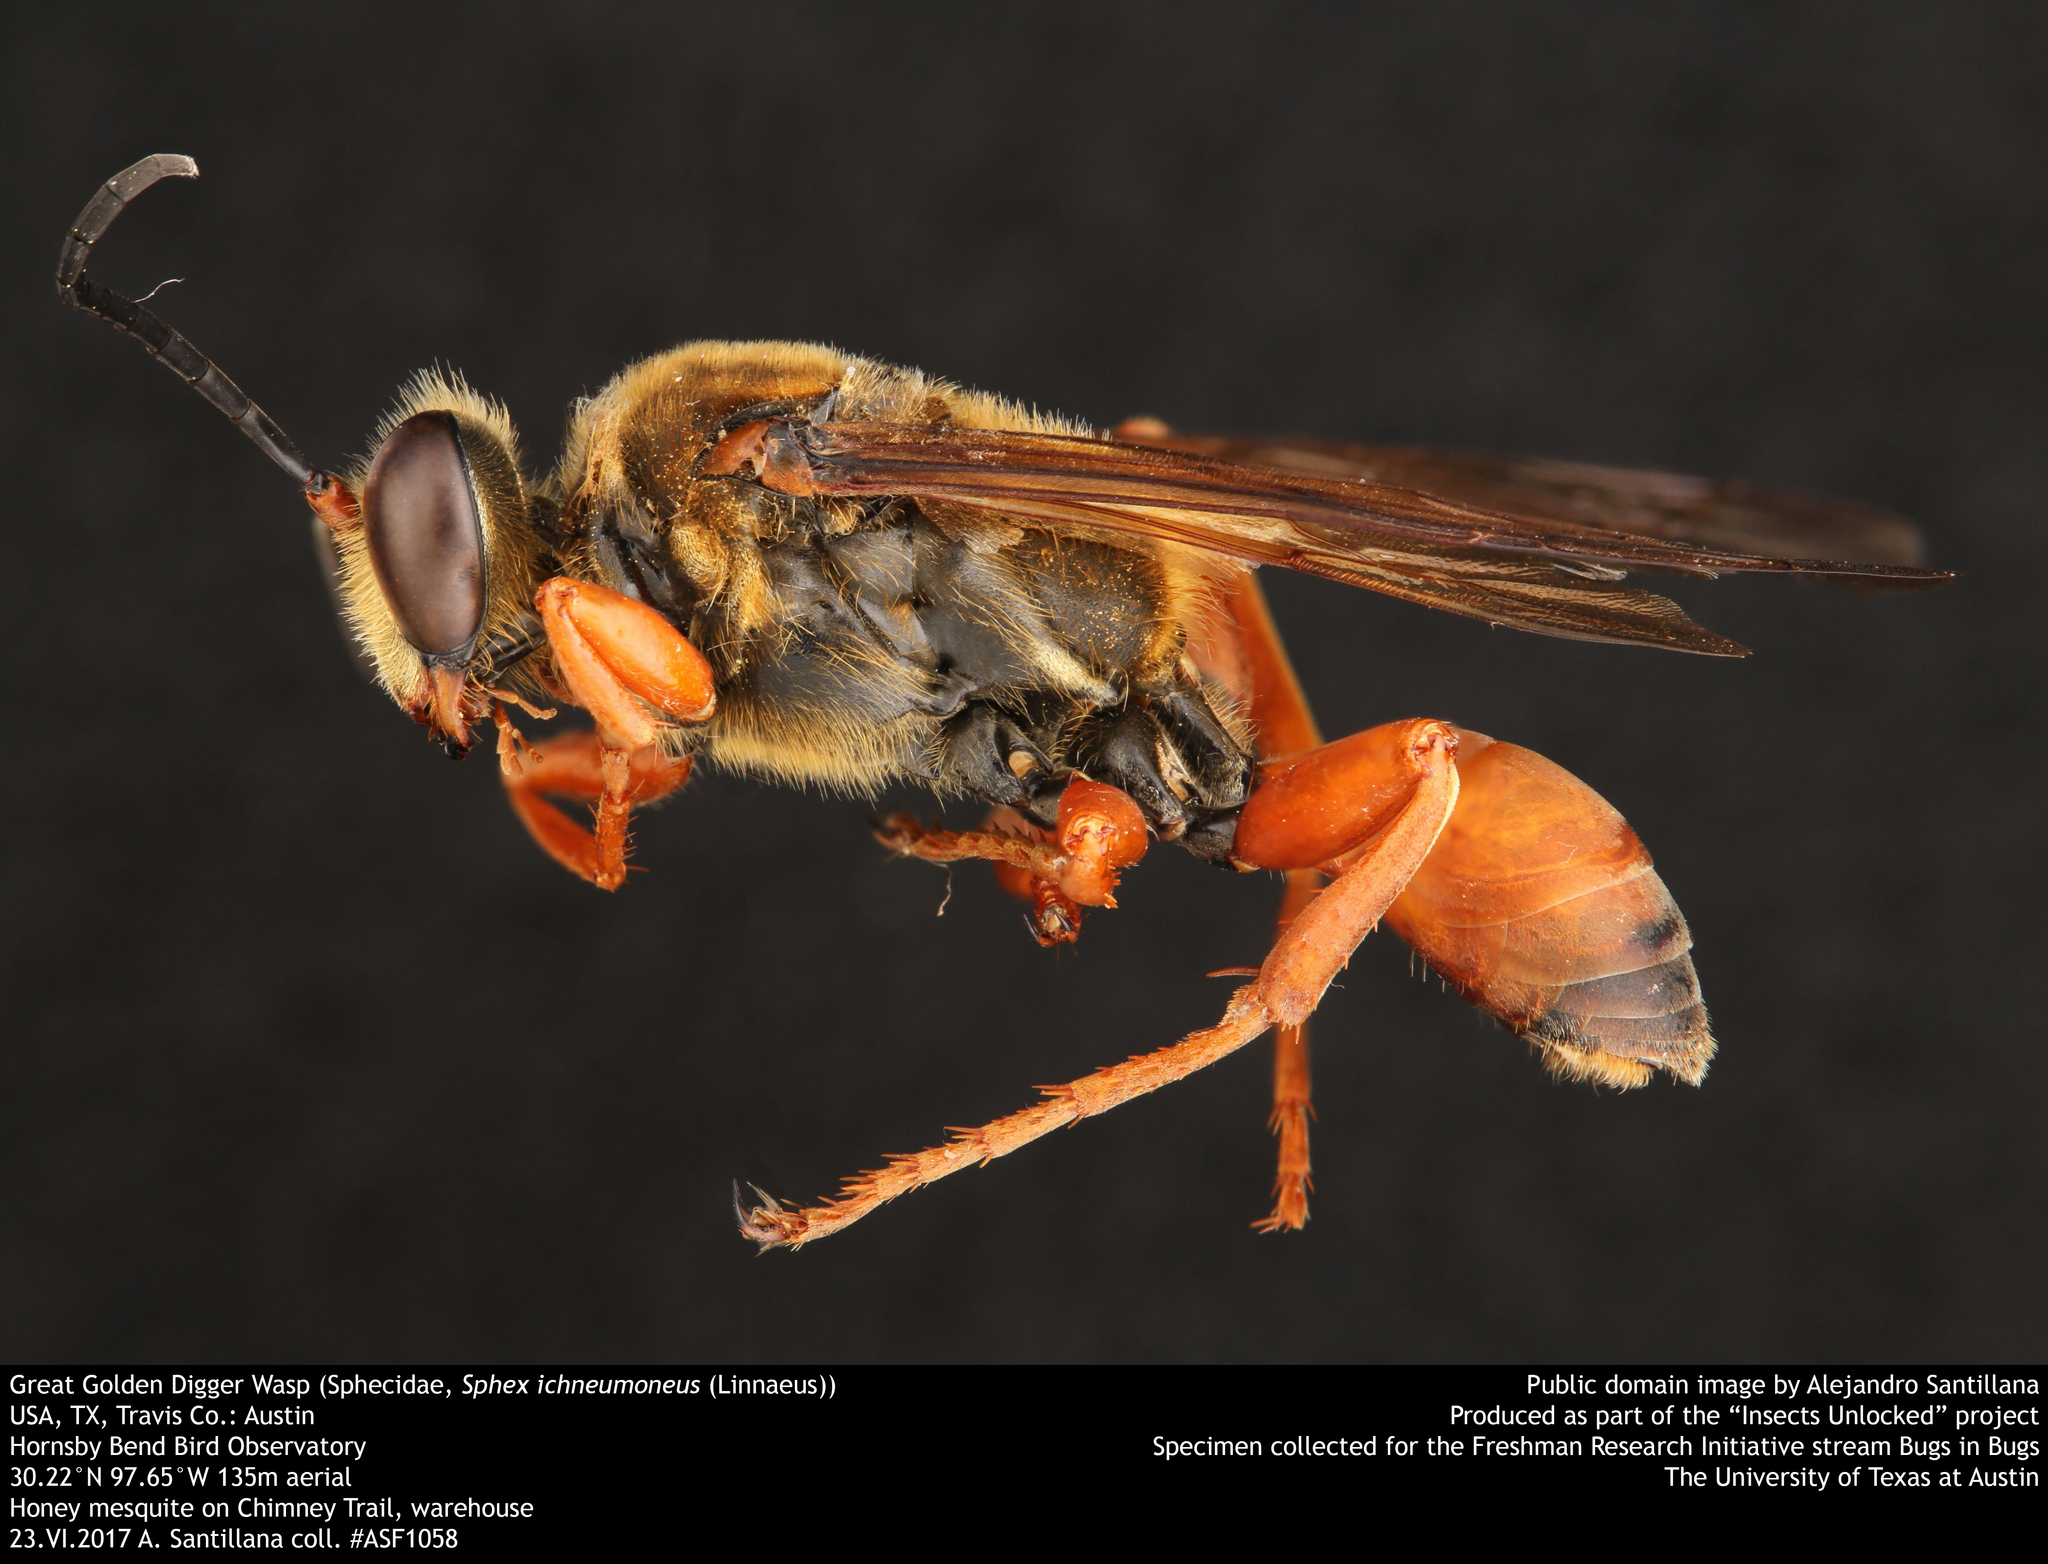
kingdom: Animalia
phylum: Arthropoda
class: Insecta
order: Hymenoptera
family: Sphecidae
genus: Sphex
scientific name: Sphex ichneumoneus
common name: Great golden digger wasp
